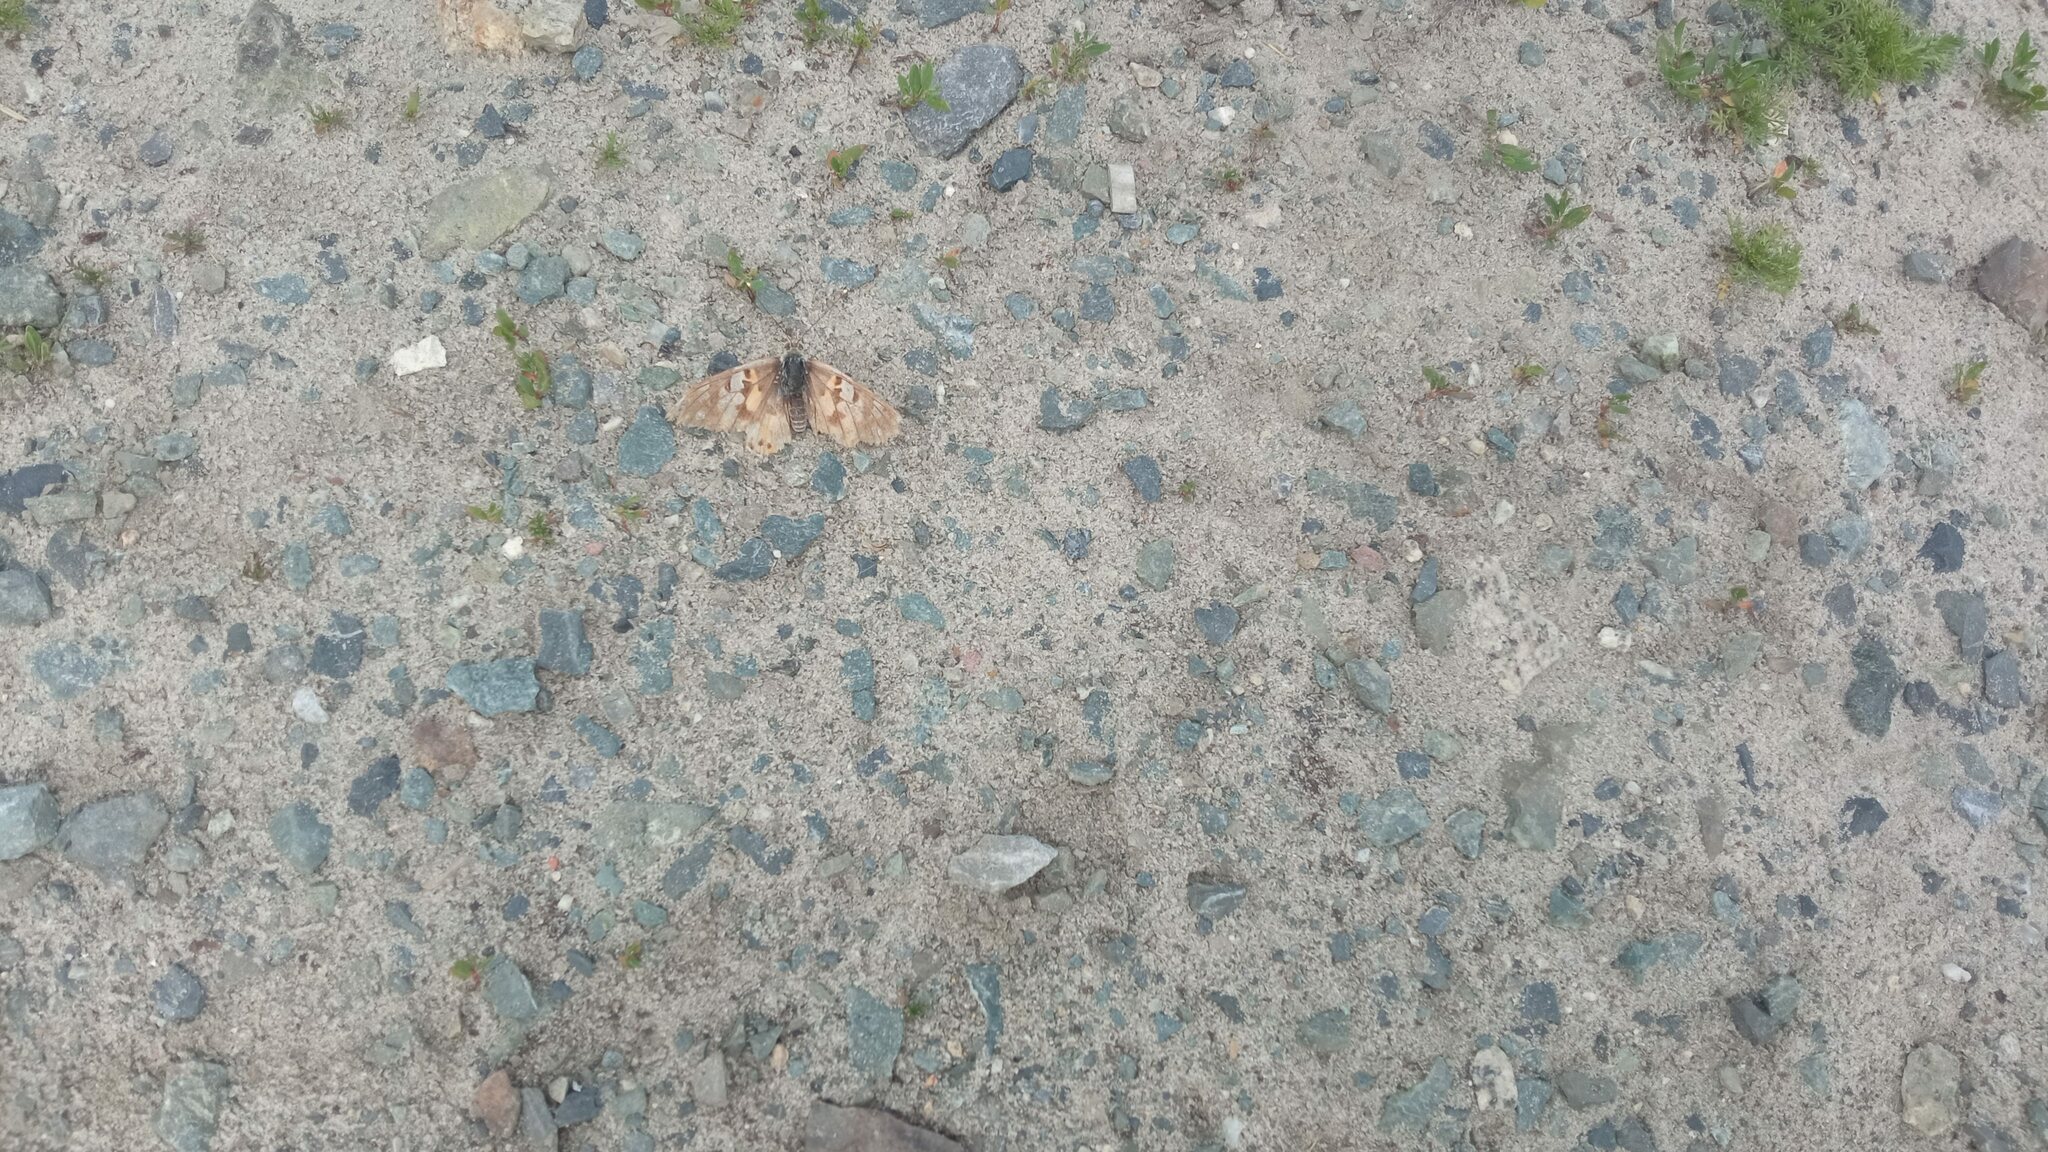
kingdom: Animalia
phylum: Arthropoda
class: Insecta
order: Lepidoptera
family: Nymphalidae
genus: Vanessa
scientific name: Vanessa cardui
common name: Painted lady
